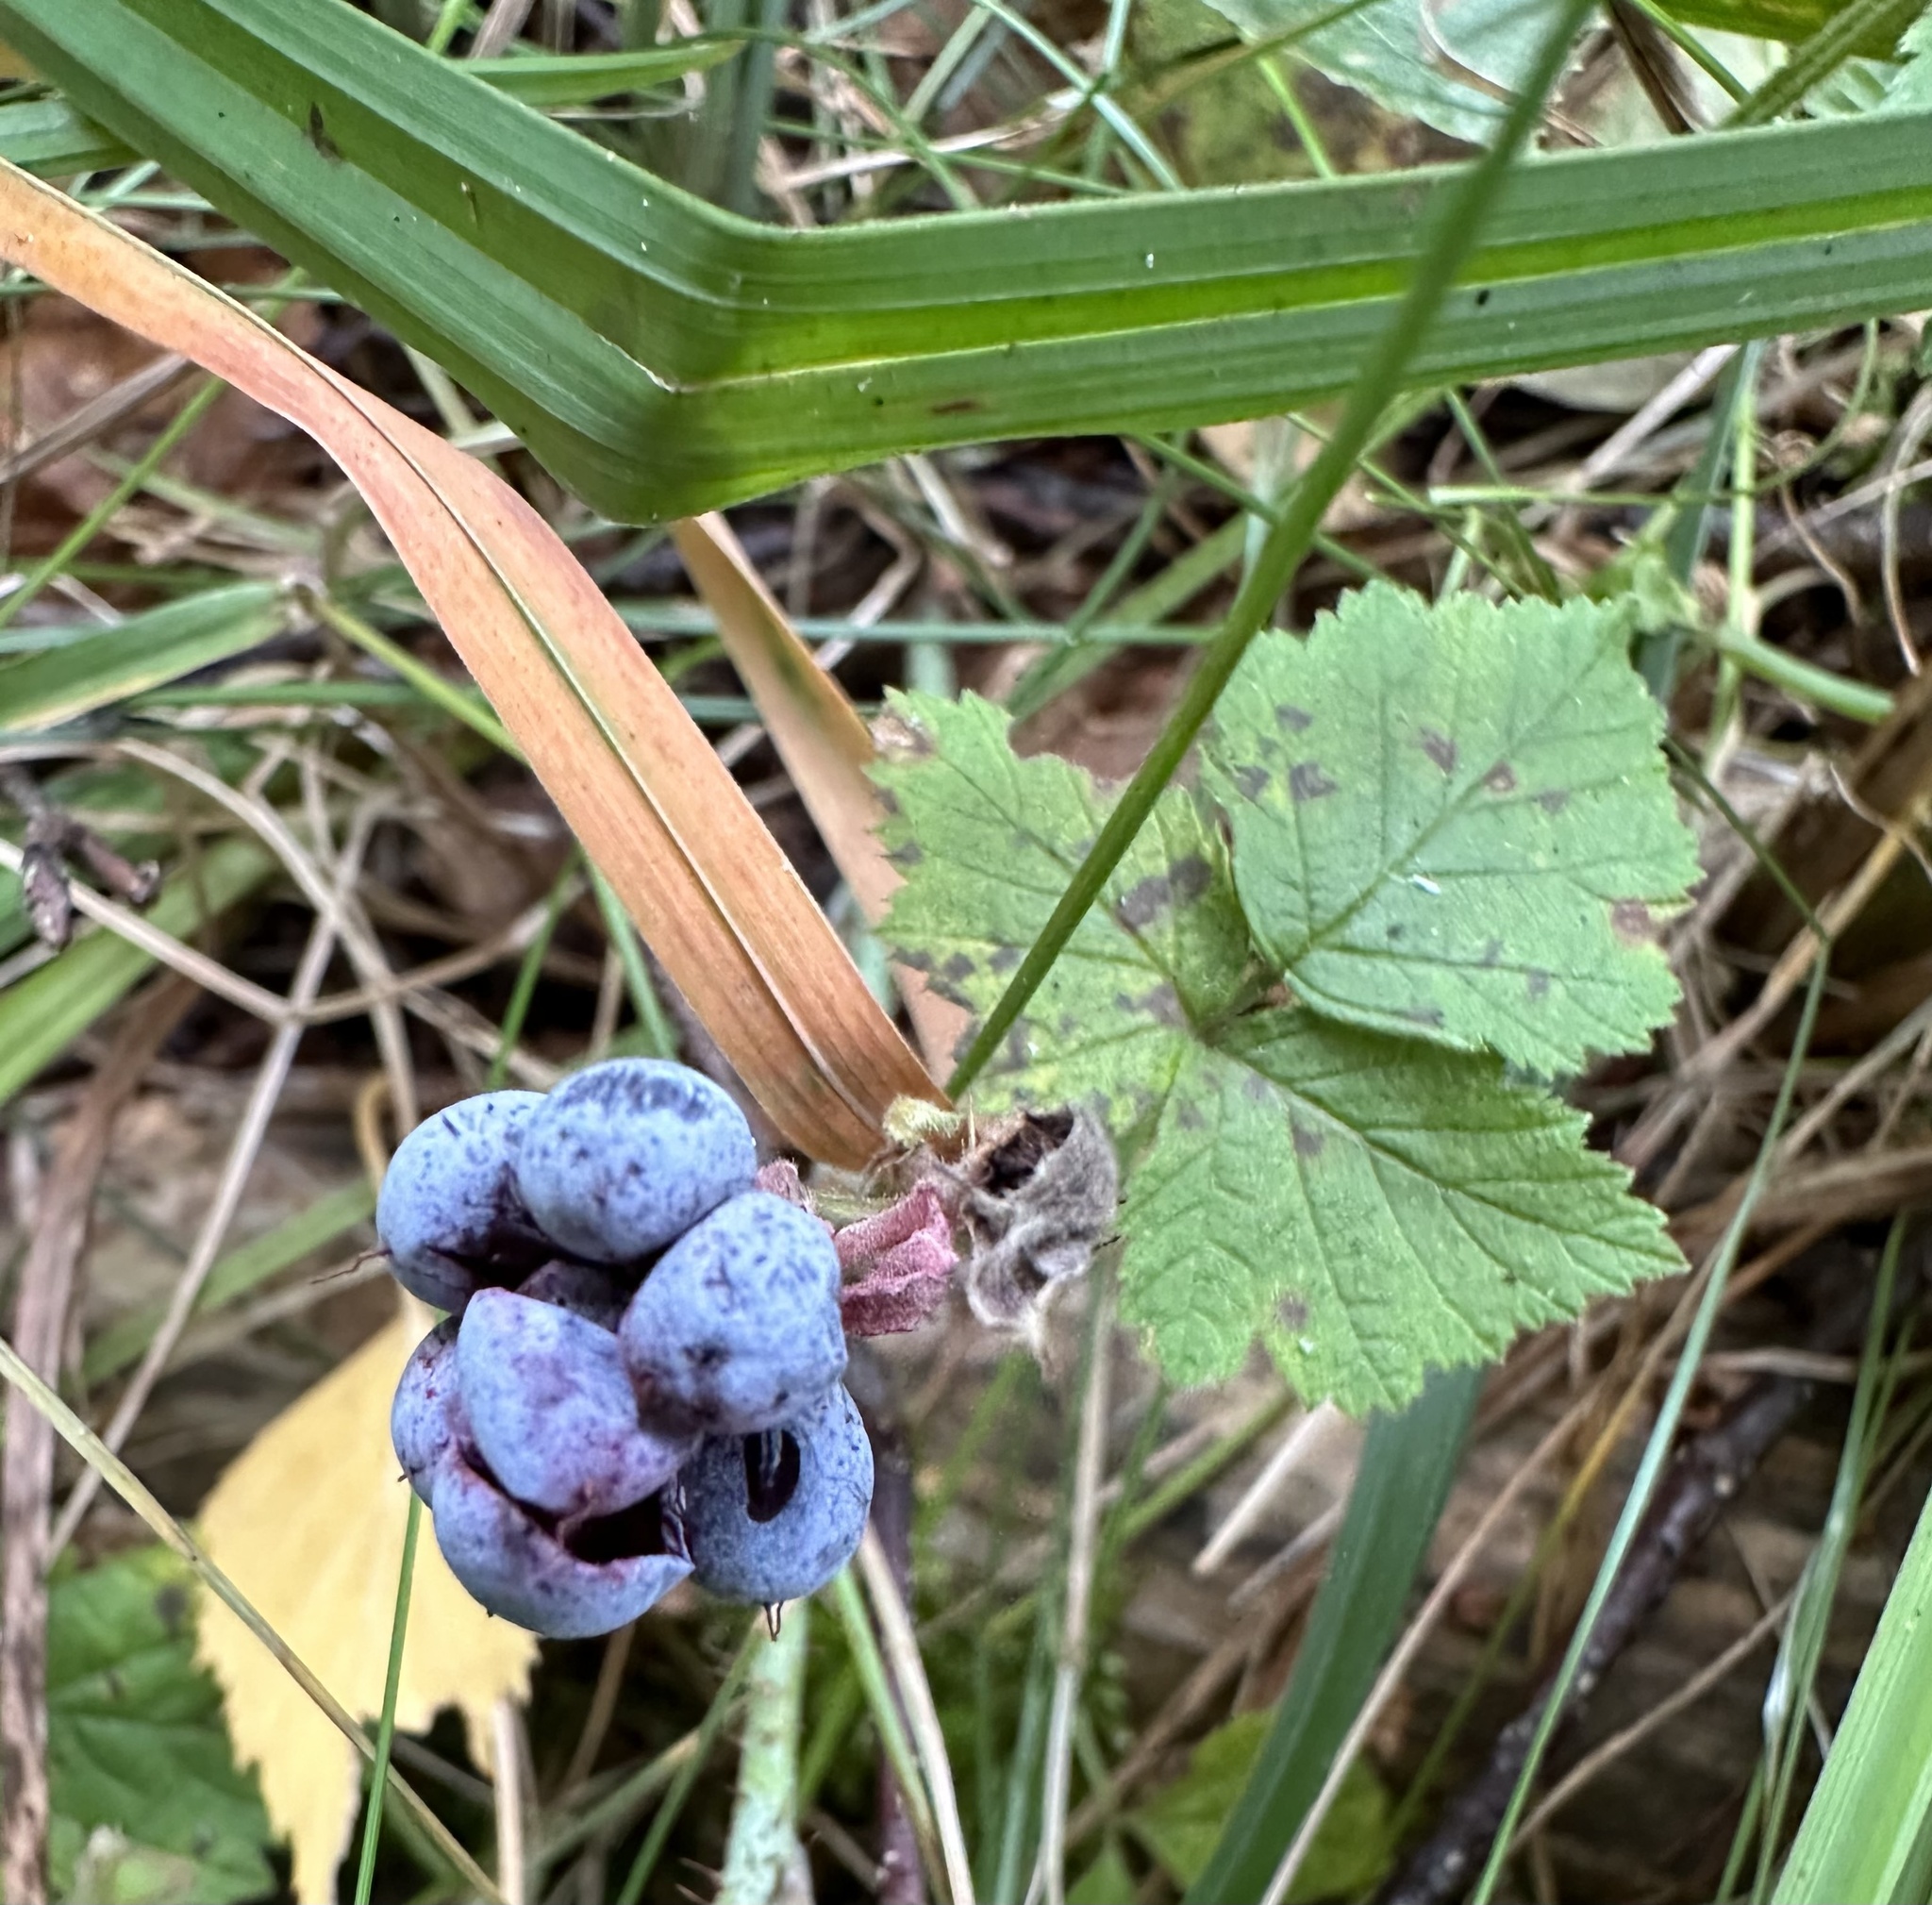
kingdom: Plantae
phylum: Tracheophyta
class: Magnoliopsida
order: Rosales
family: Rosaceae
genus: Rubus
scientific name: Rubus caesius
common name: Dewberry
